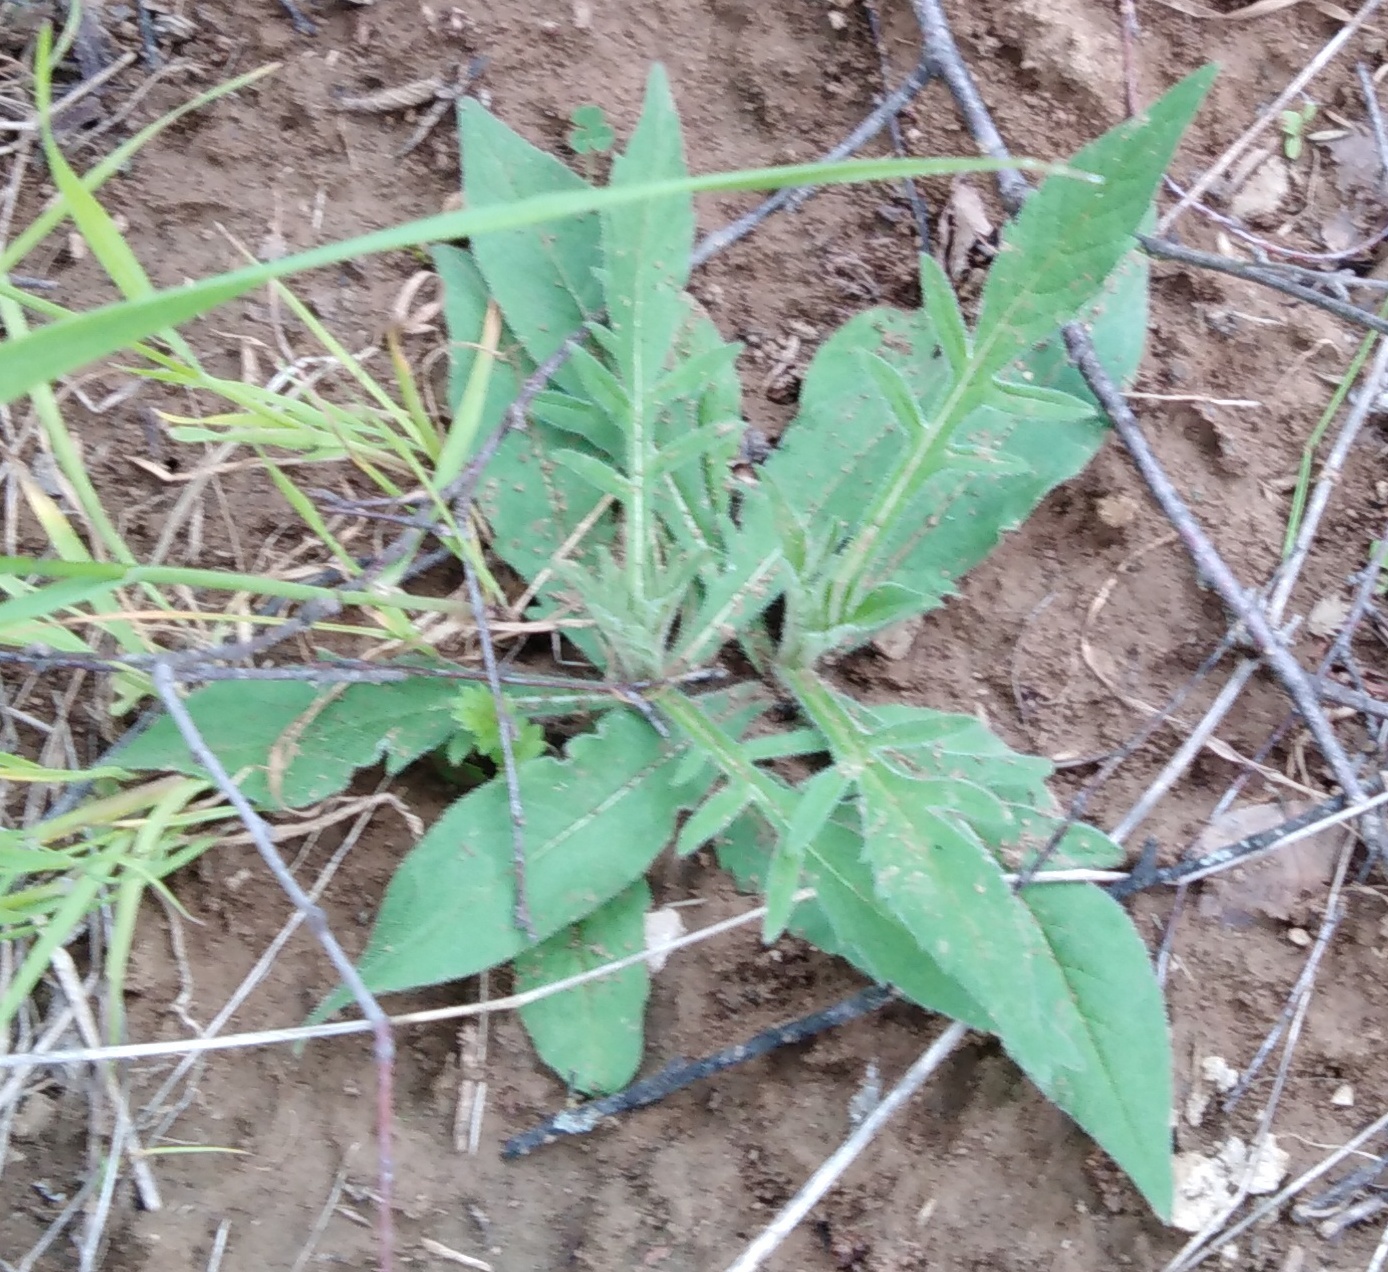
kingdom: Plantae
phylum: Tracheophyta
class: Magnoliopsida
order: Dipsacales
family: Caprifoliaceae
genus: Knautia
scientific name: Knautia arvensis
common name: Field scabiosa
